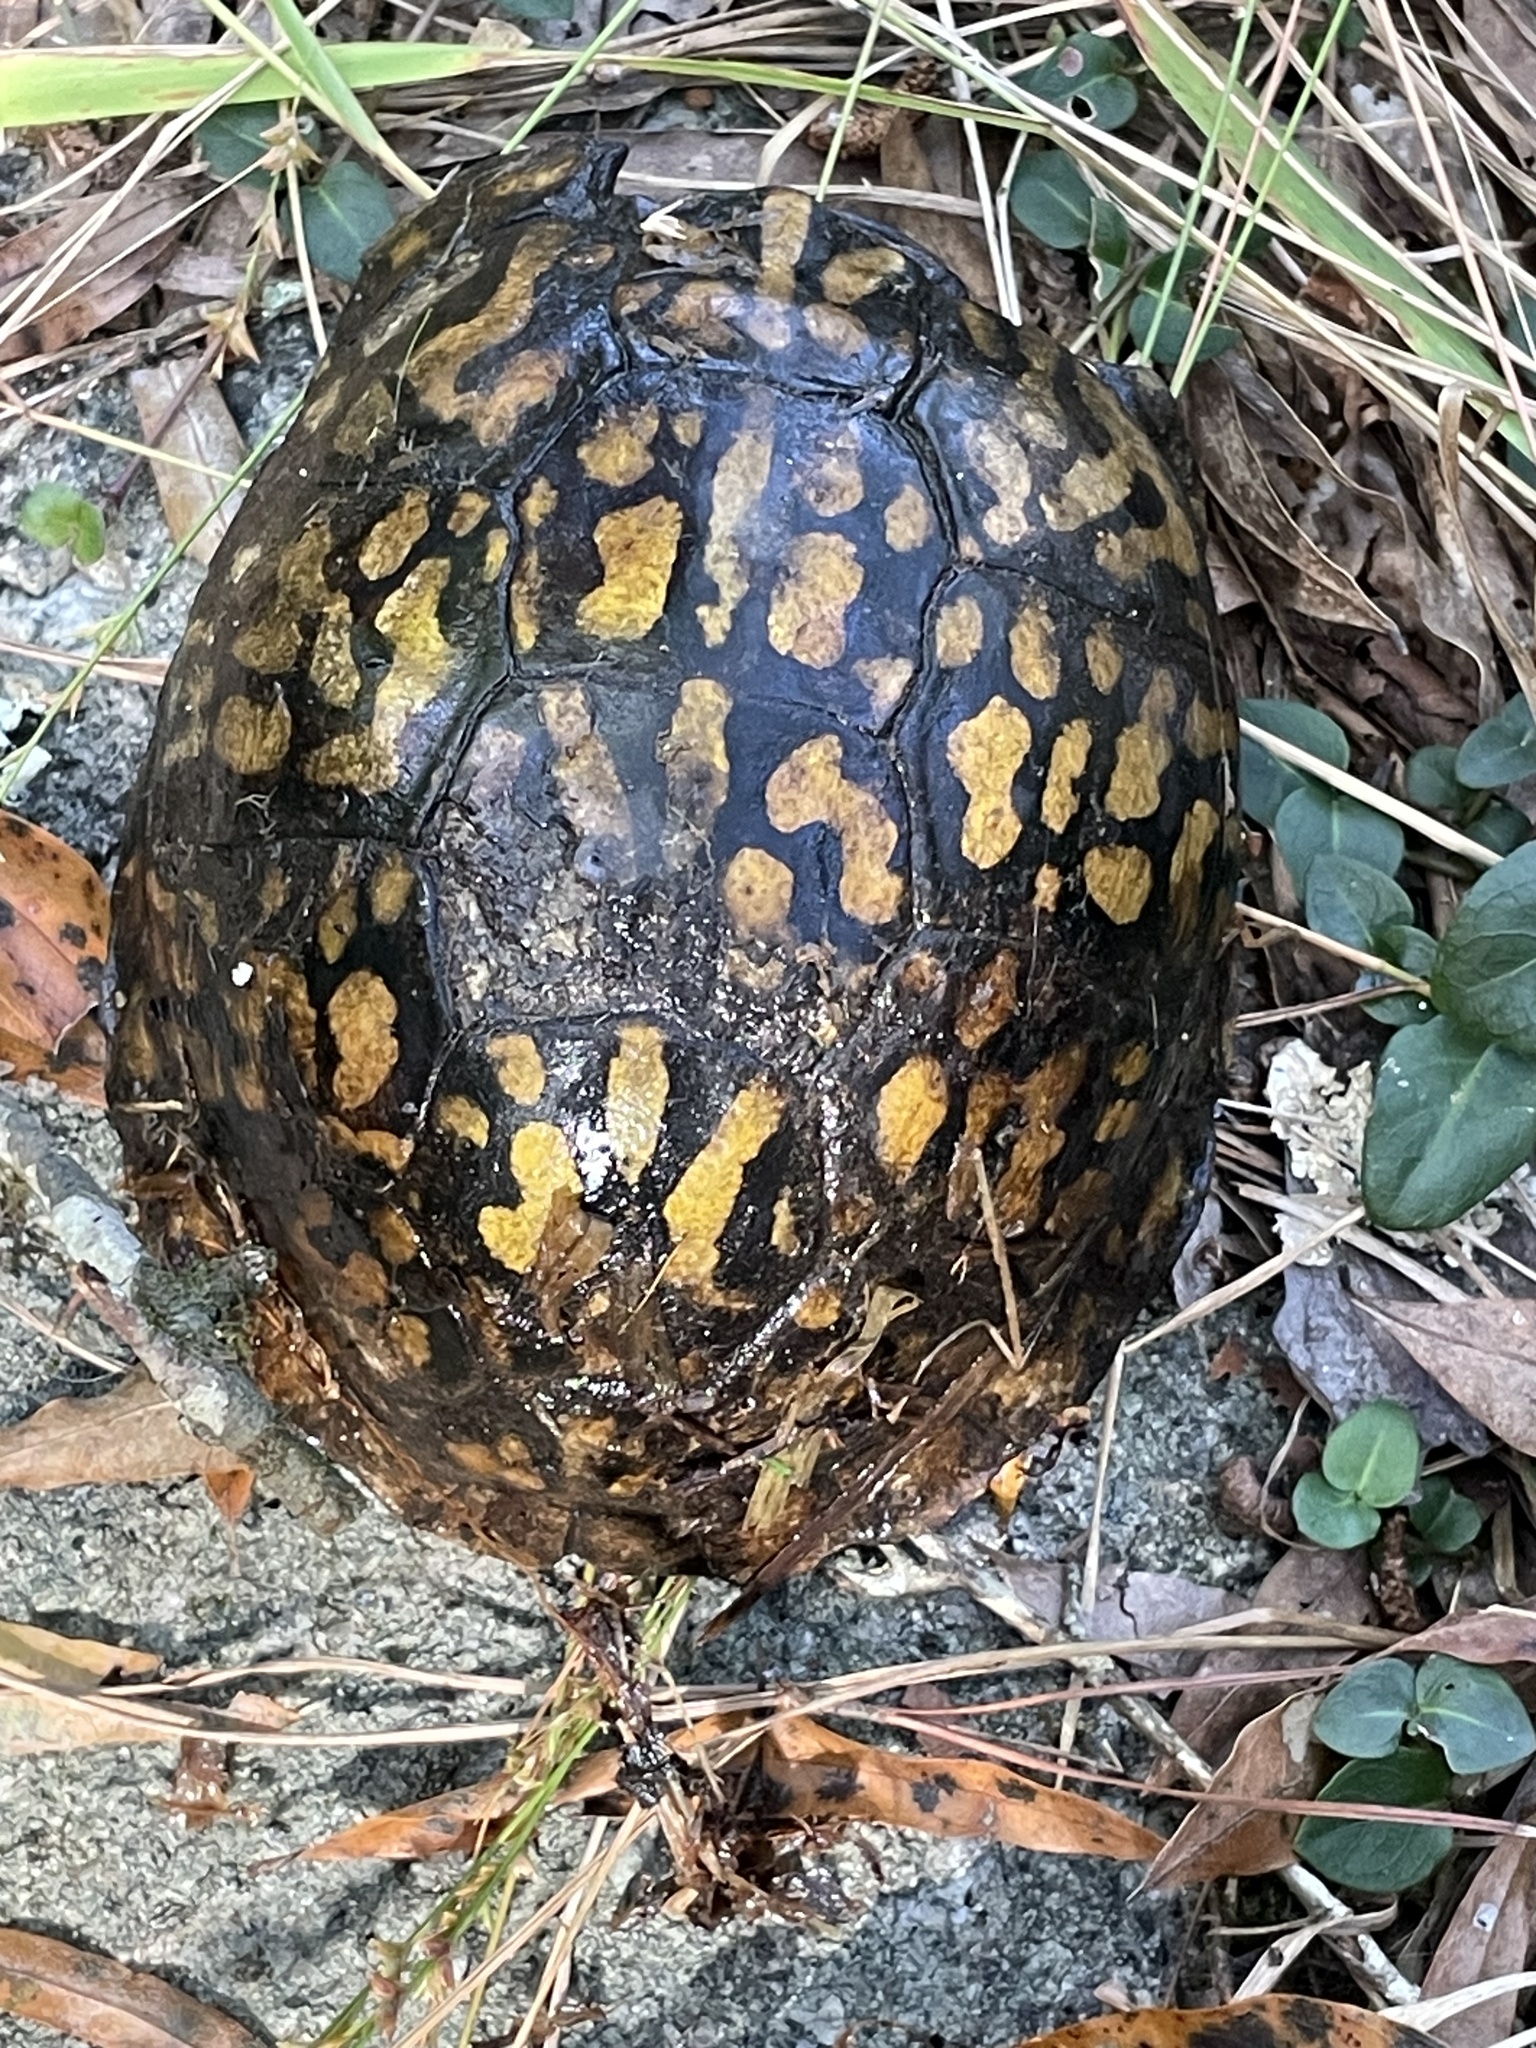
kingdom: Animalia
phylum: Chordata
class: Testudines
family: Emydidae
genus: Terrapene
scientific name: Terrapene carolina
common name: Common box turtle
